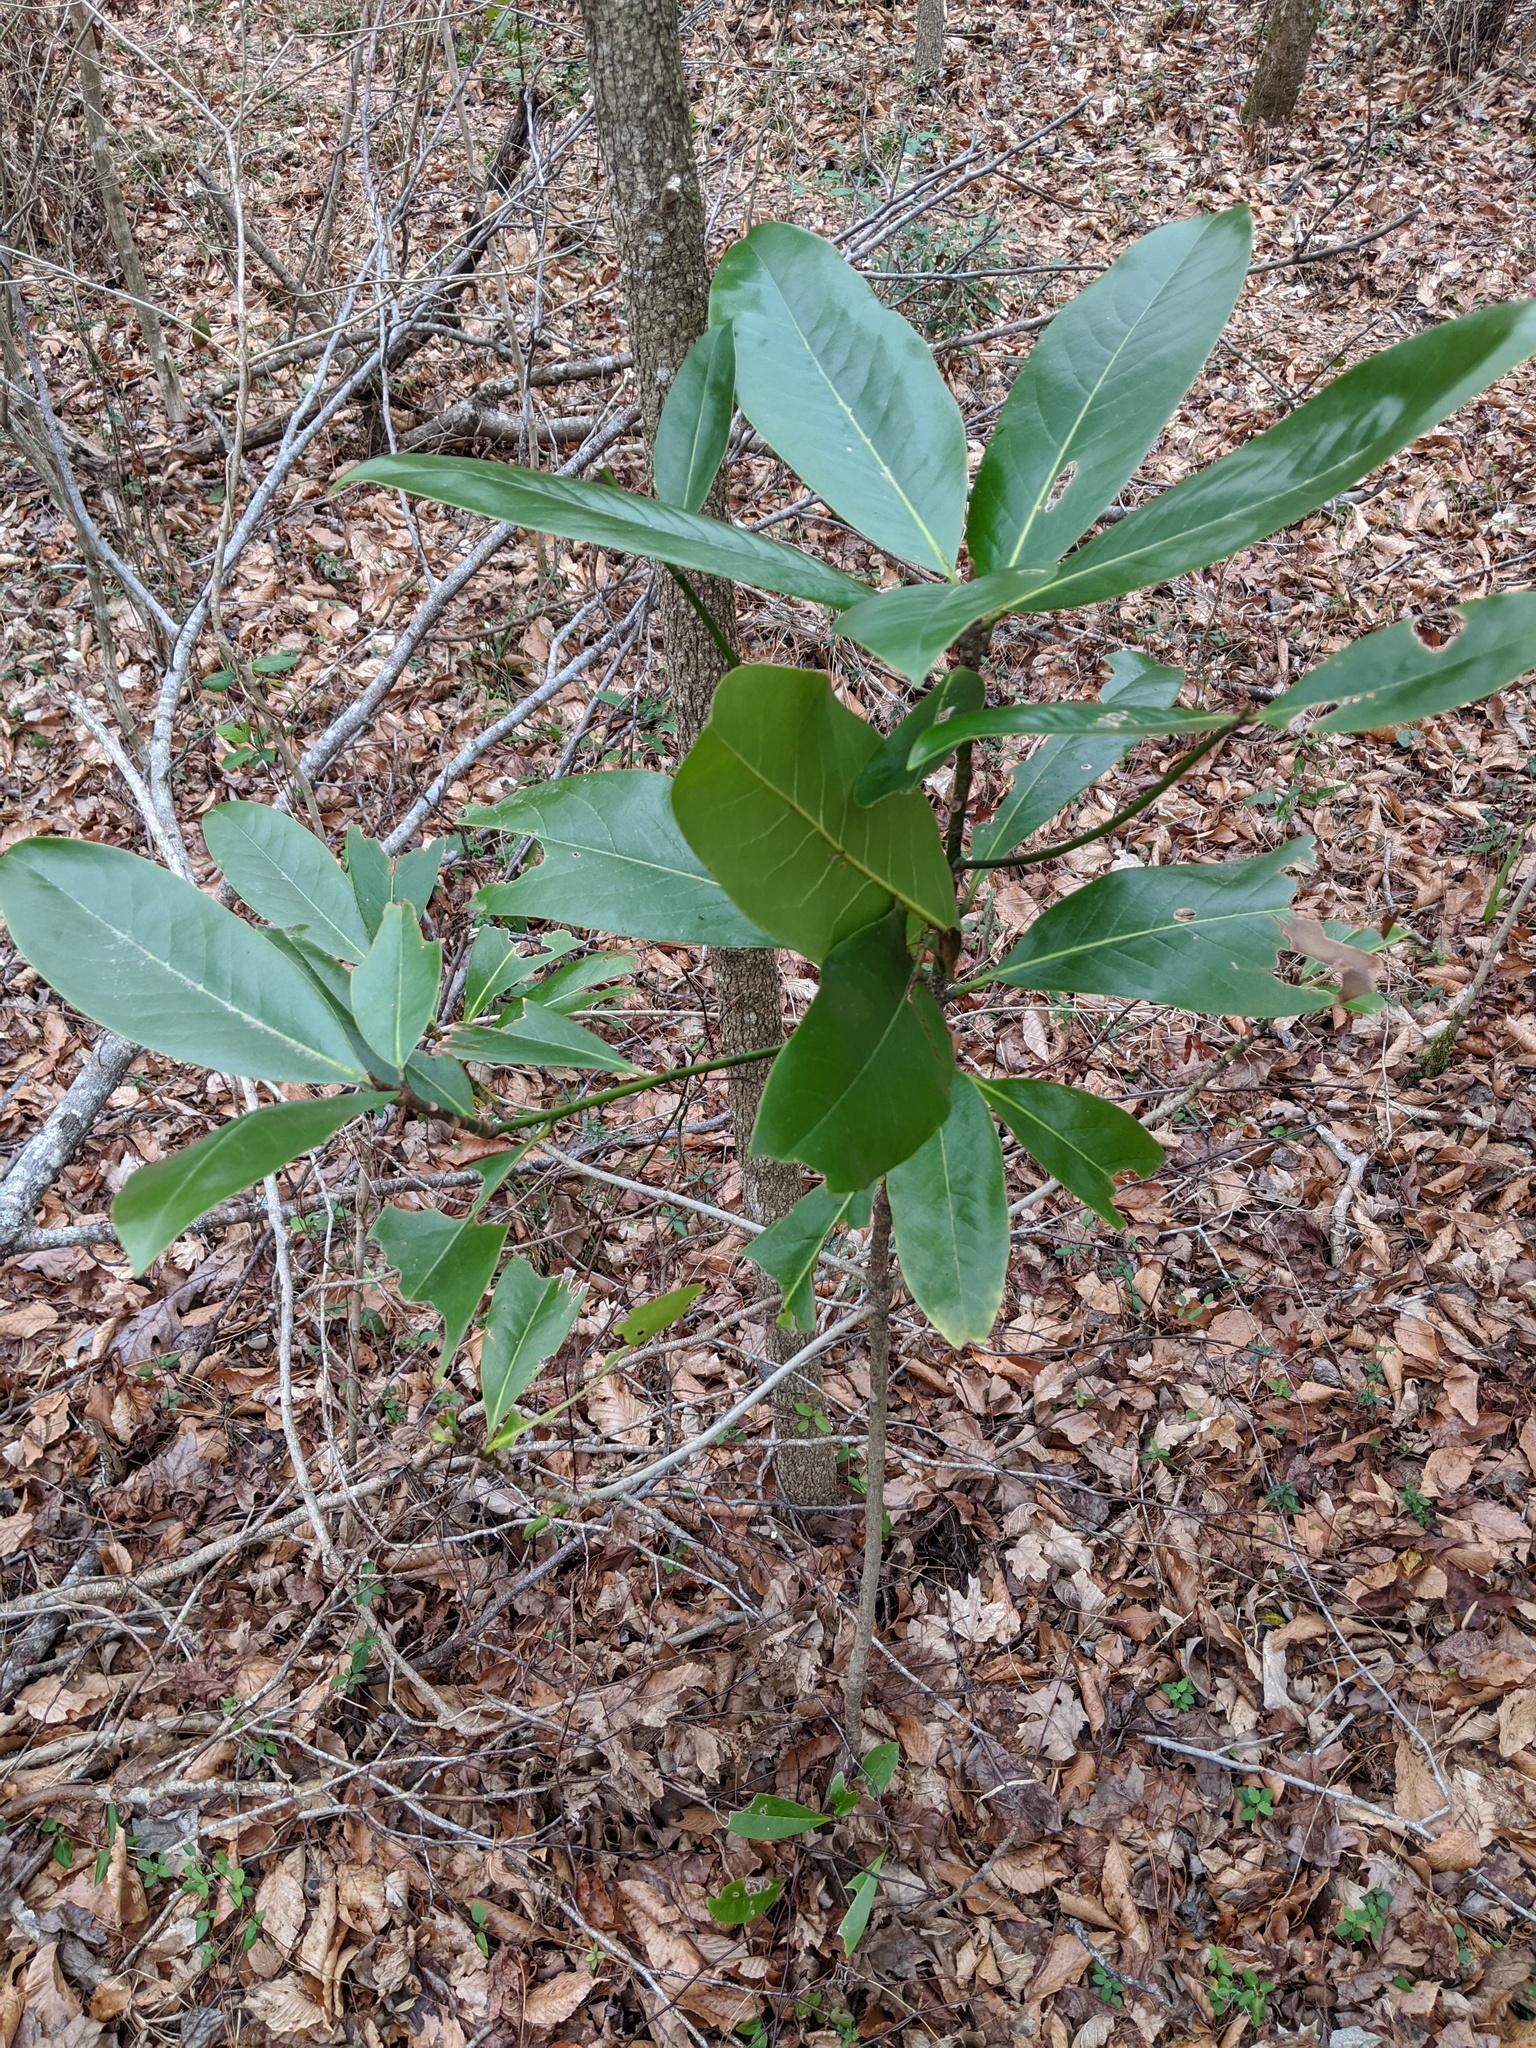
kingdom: Plantae
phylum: Tracheophyta
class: Magnoliopsida
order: Magnoliales
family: Magnoliaceae
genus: Magnolia
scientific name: Magnolia grandiflora
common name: Southern magnolia
